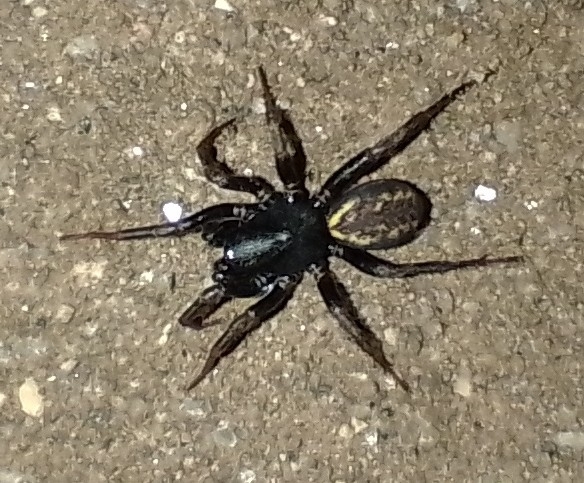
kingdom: Animalia
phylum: Arthropoda
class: Arachnida
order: Araneae
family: Zodariidae
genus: Cybaeodamus
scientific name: Cybaeodamus meridionalis
